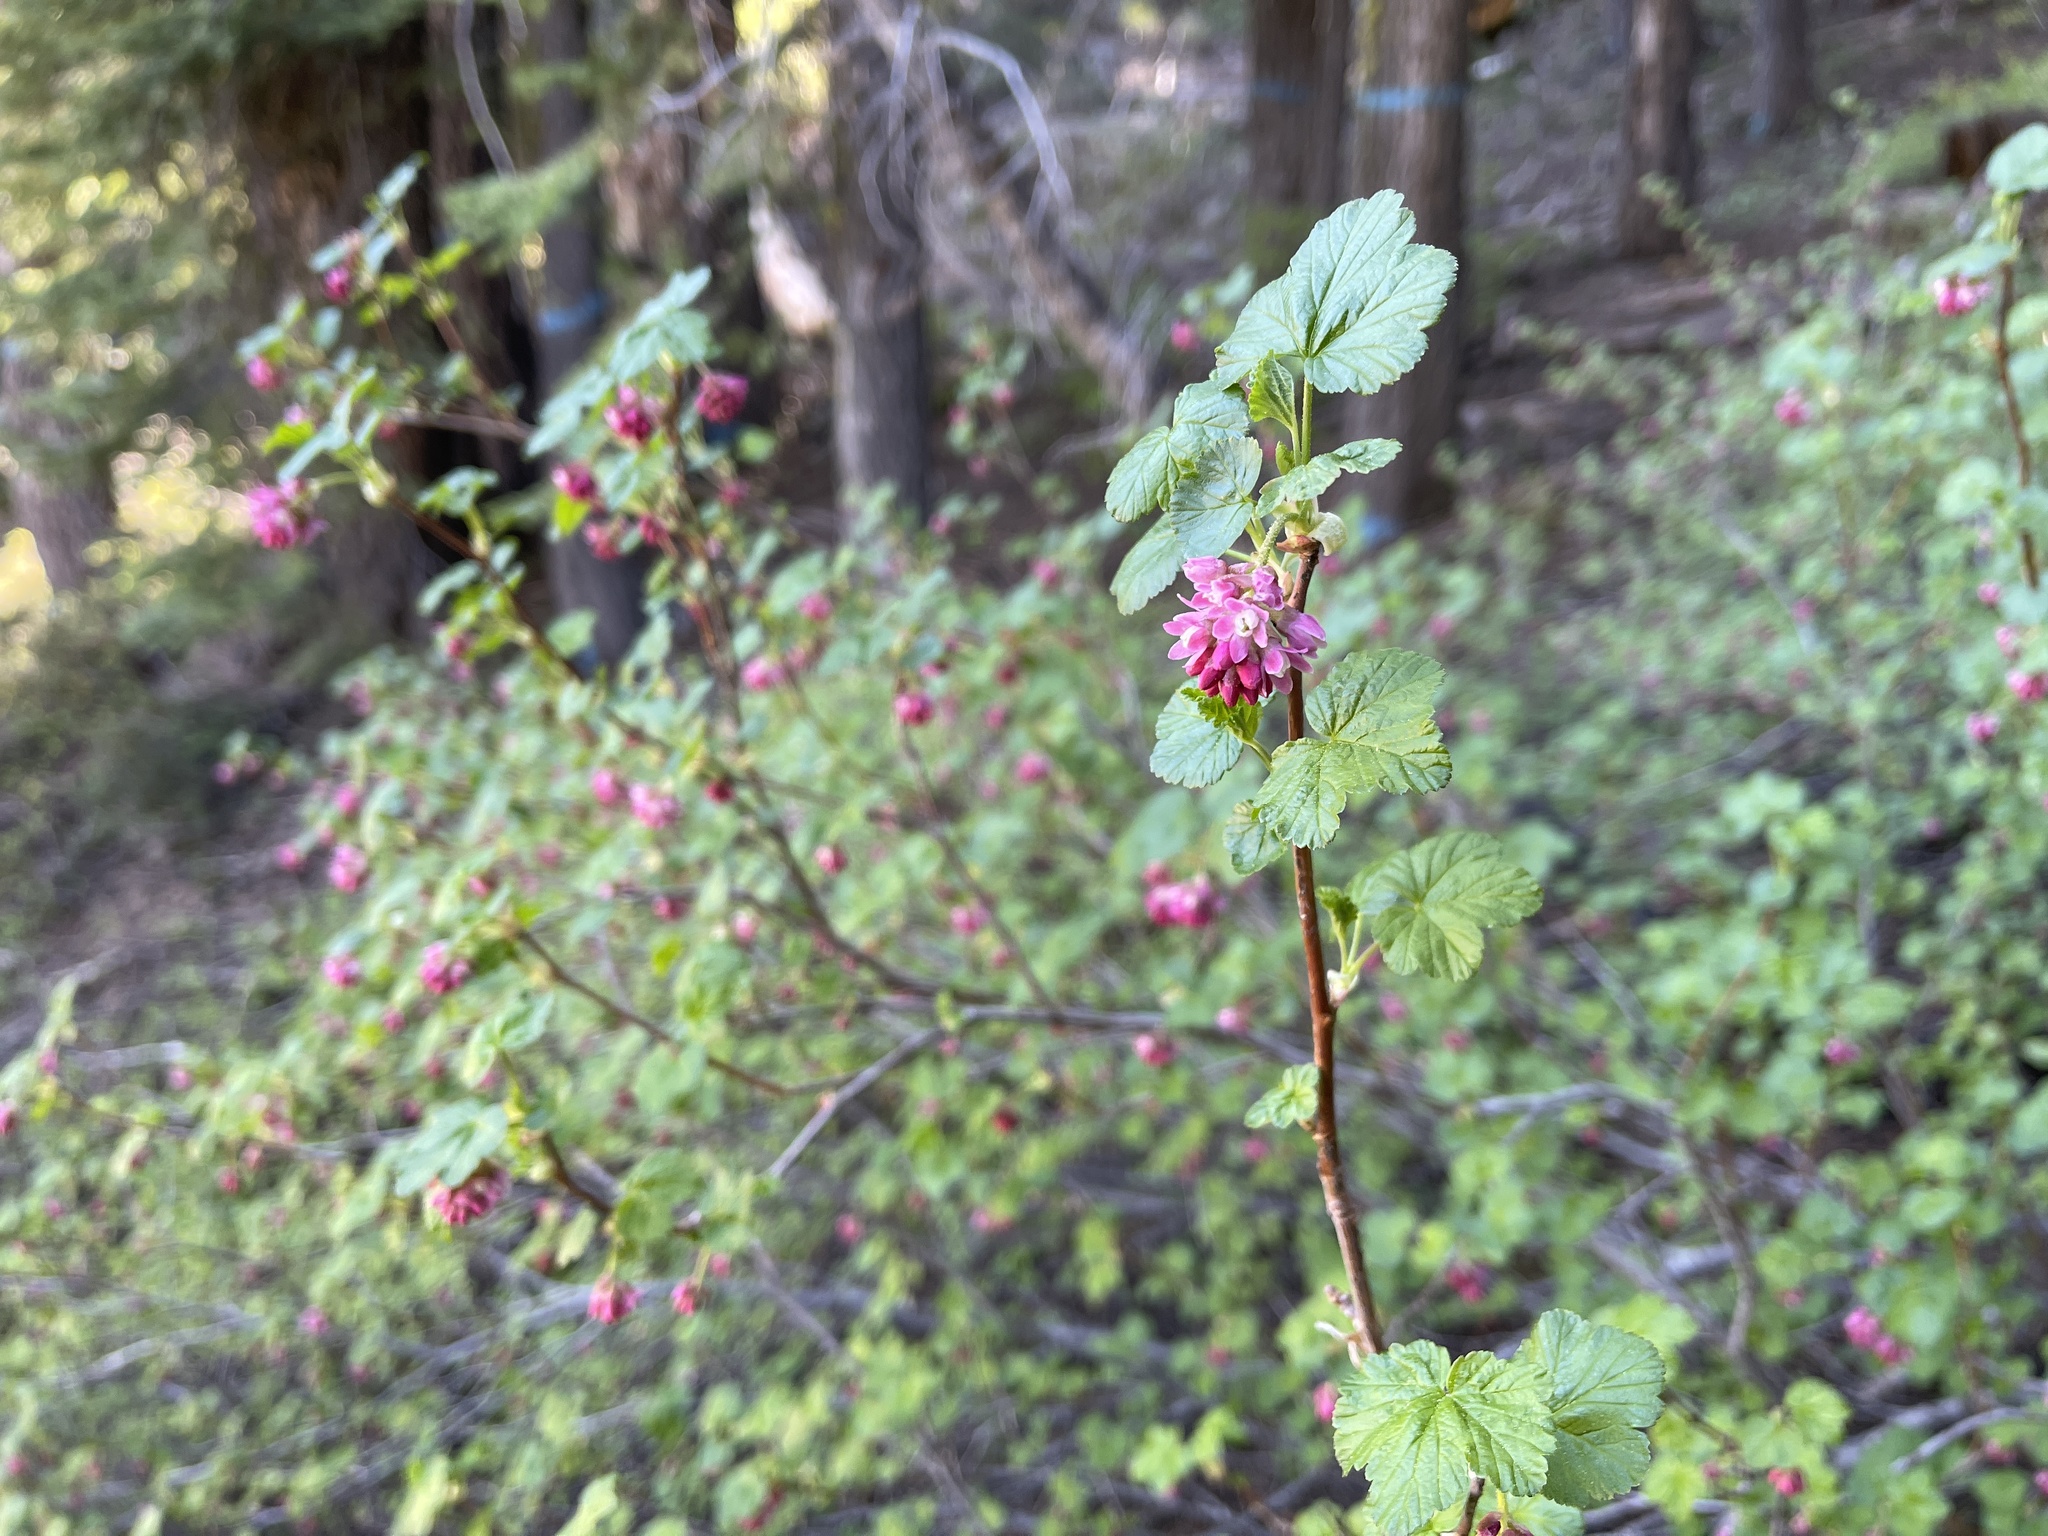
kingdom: Plantae
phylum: Tracheophyta
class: Magnoliopsida
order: Saxifragales
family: Grossulariaceae
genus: Ribes
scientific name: Ribes nevadense
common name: Mountain pink currant
